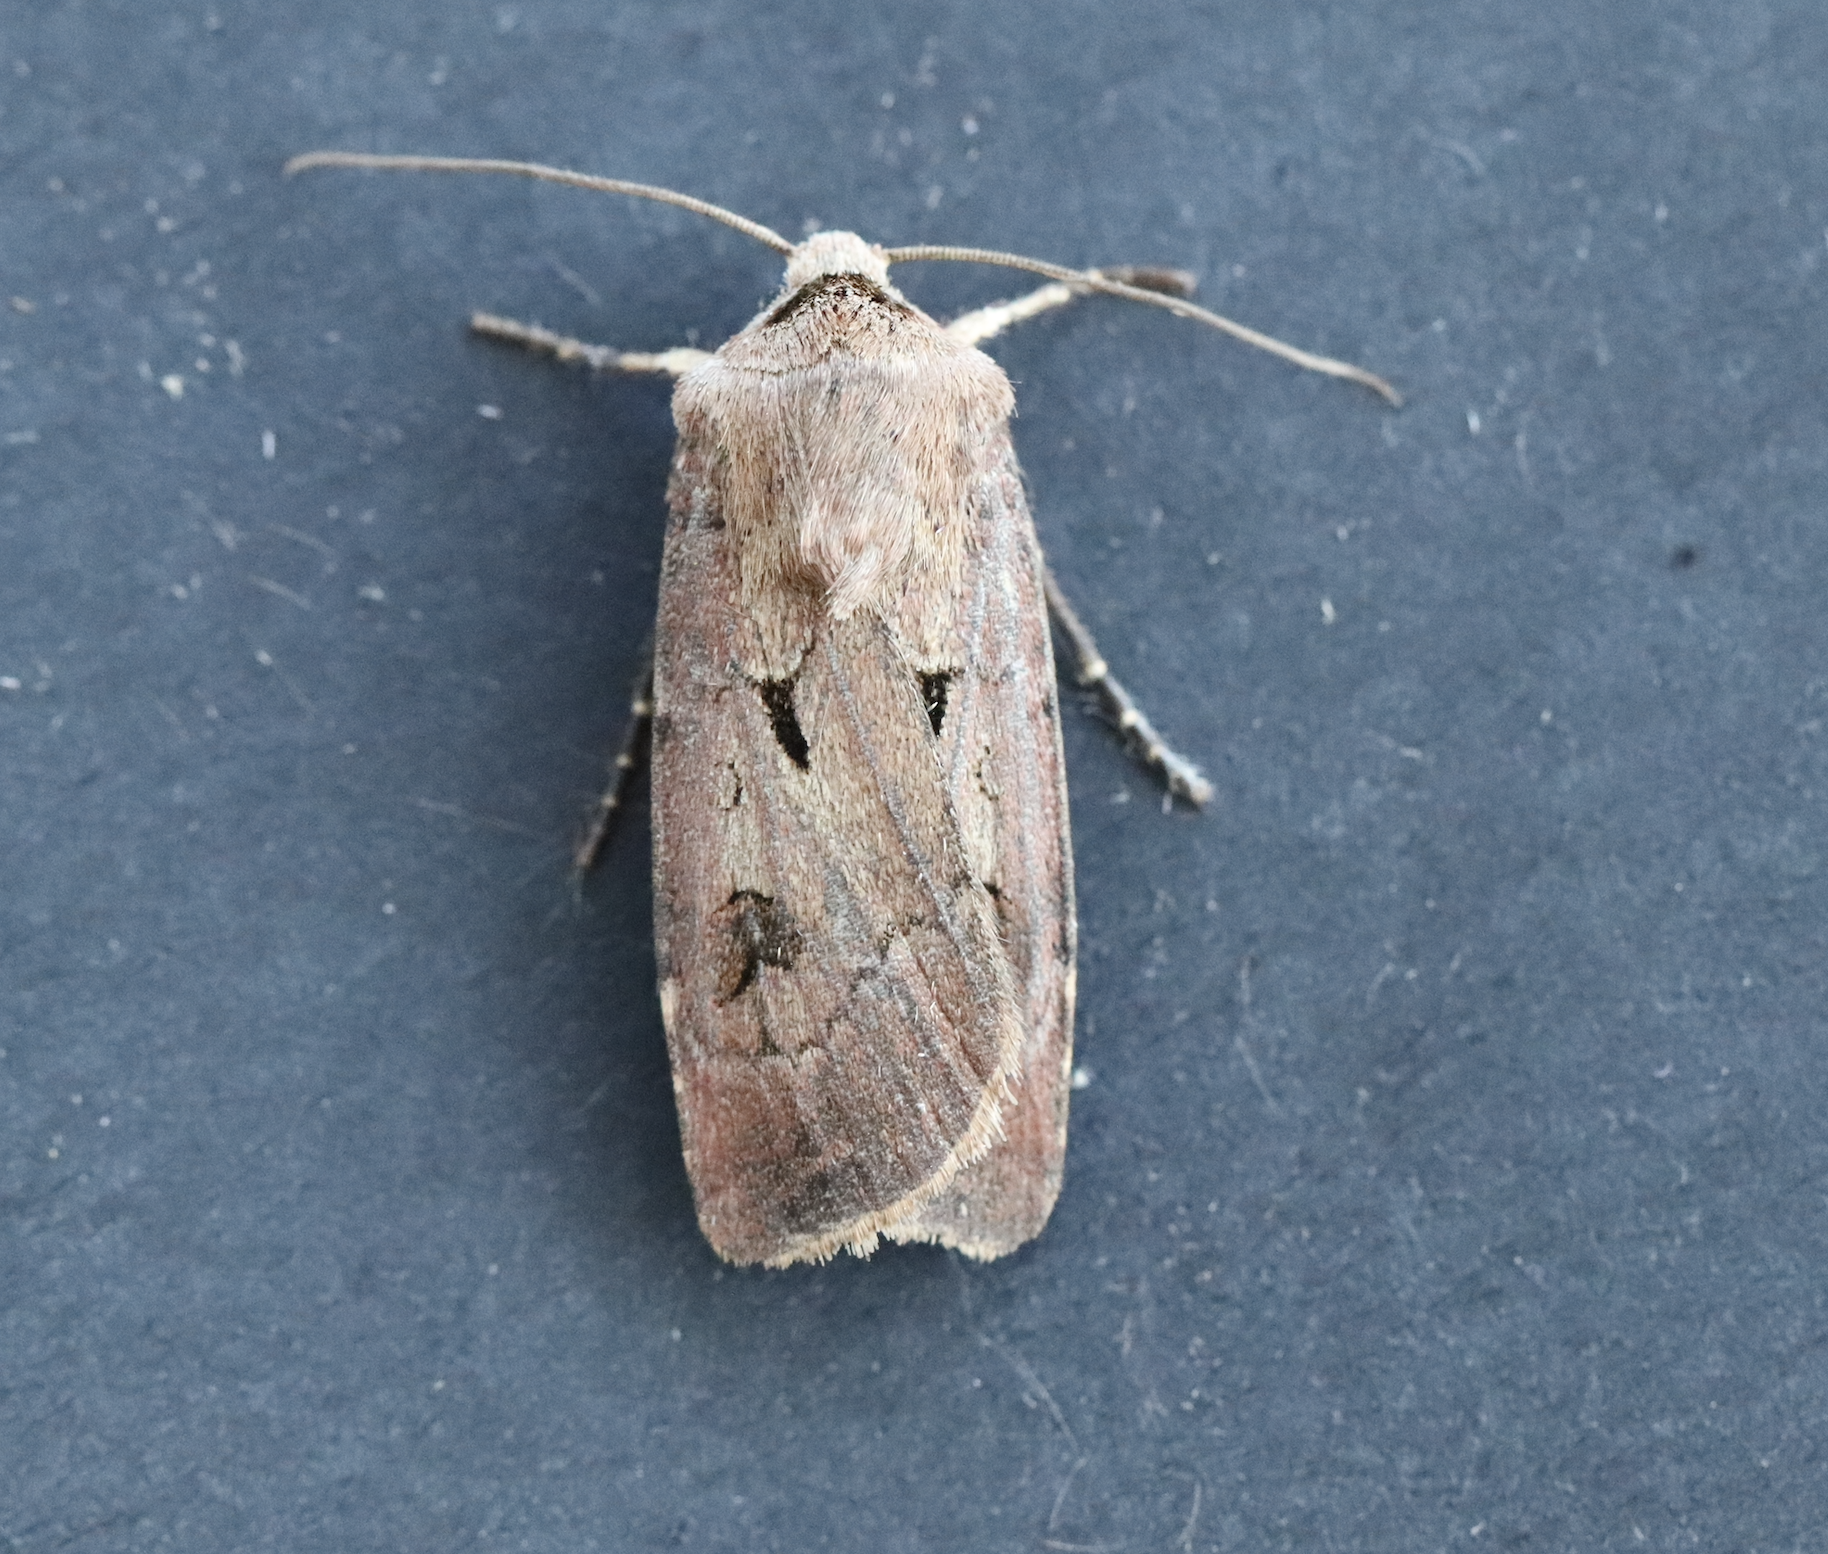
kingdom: Animalia
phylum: Arthropoda
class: Insecta
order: Lepidoptera
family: Noctuidae
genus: Agrotis
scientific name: Agrotis exclamationis
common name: Heart and dart
